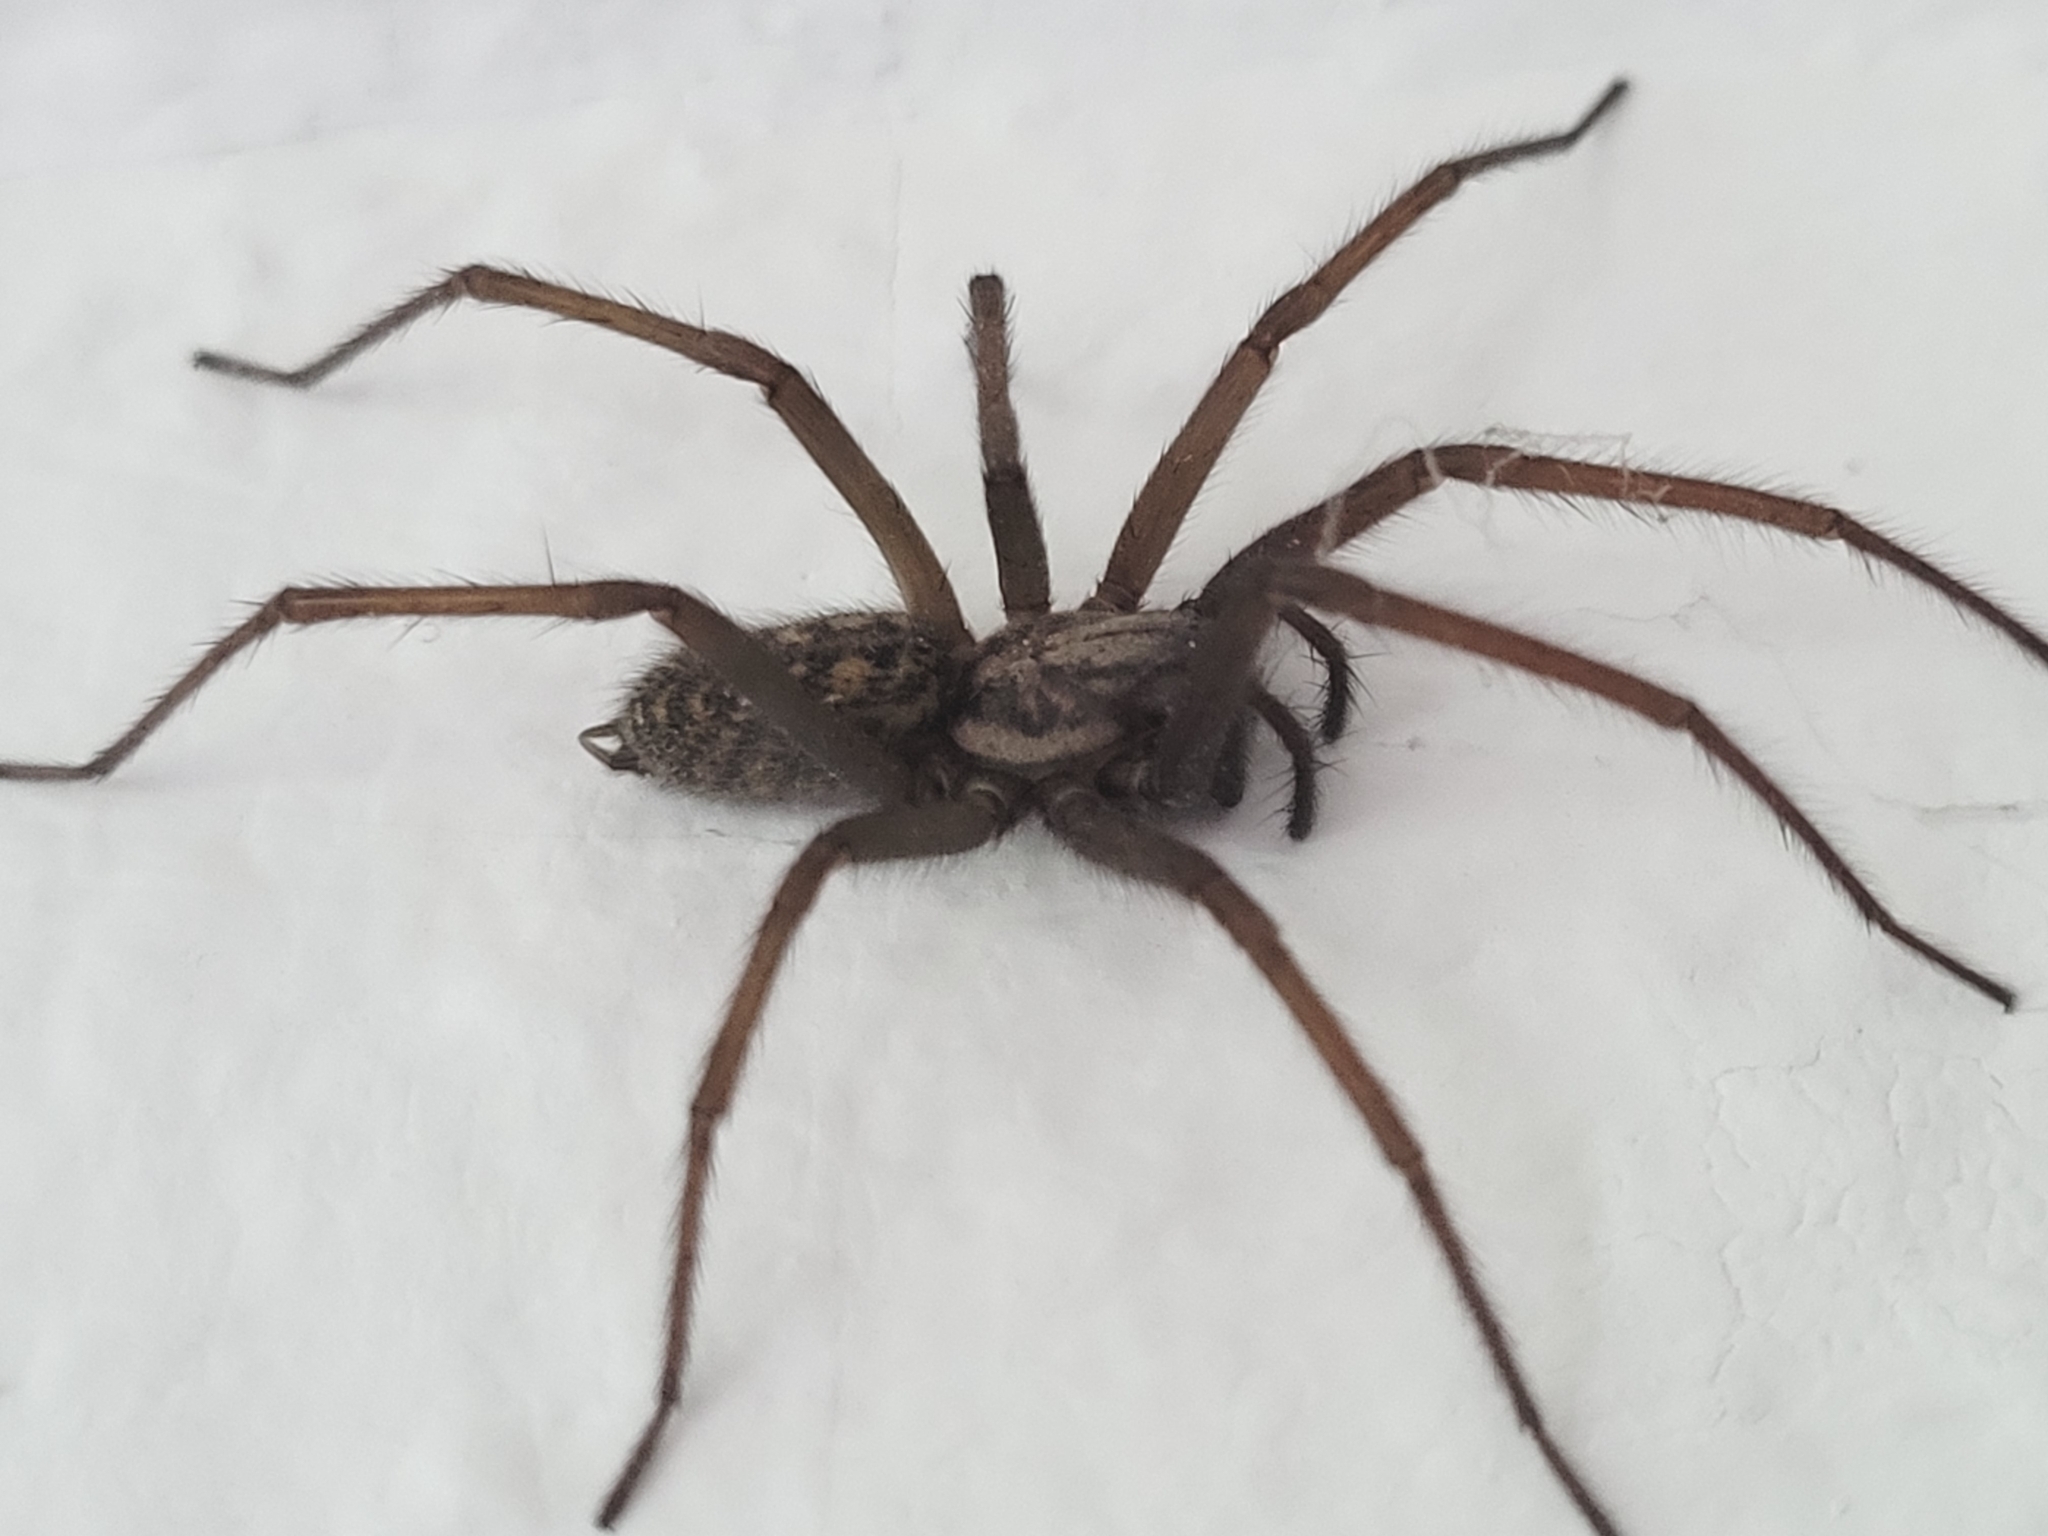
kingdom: Animalia
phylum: Arthropoda
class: Arachnida
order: Araneae
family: Agelenidae
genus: Eratigena
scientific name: Eratigena atrica
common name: Giant house spider
